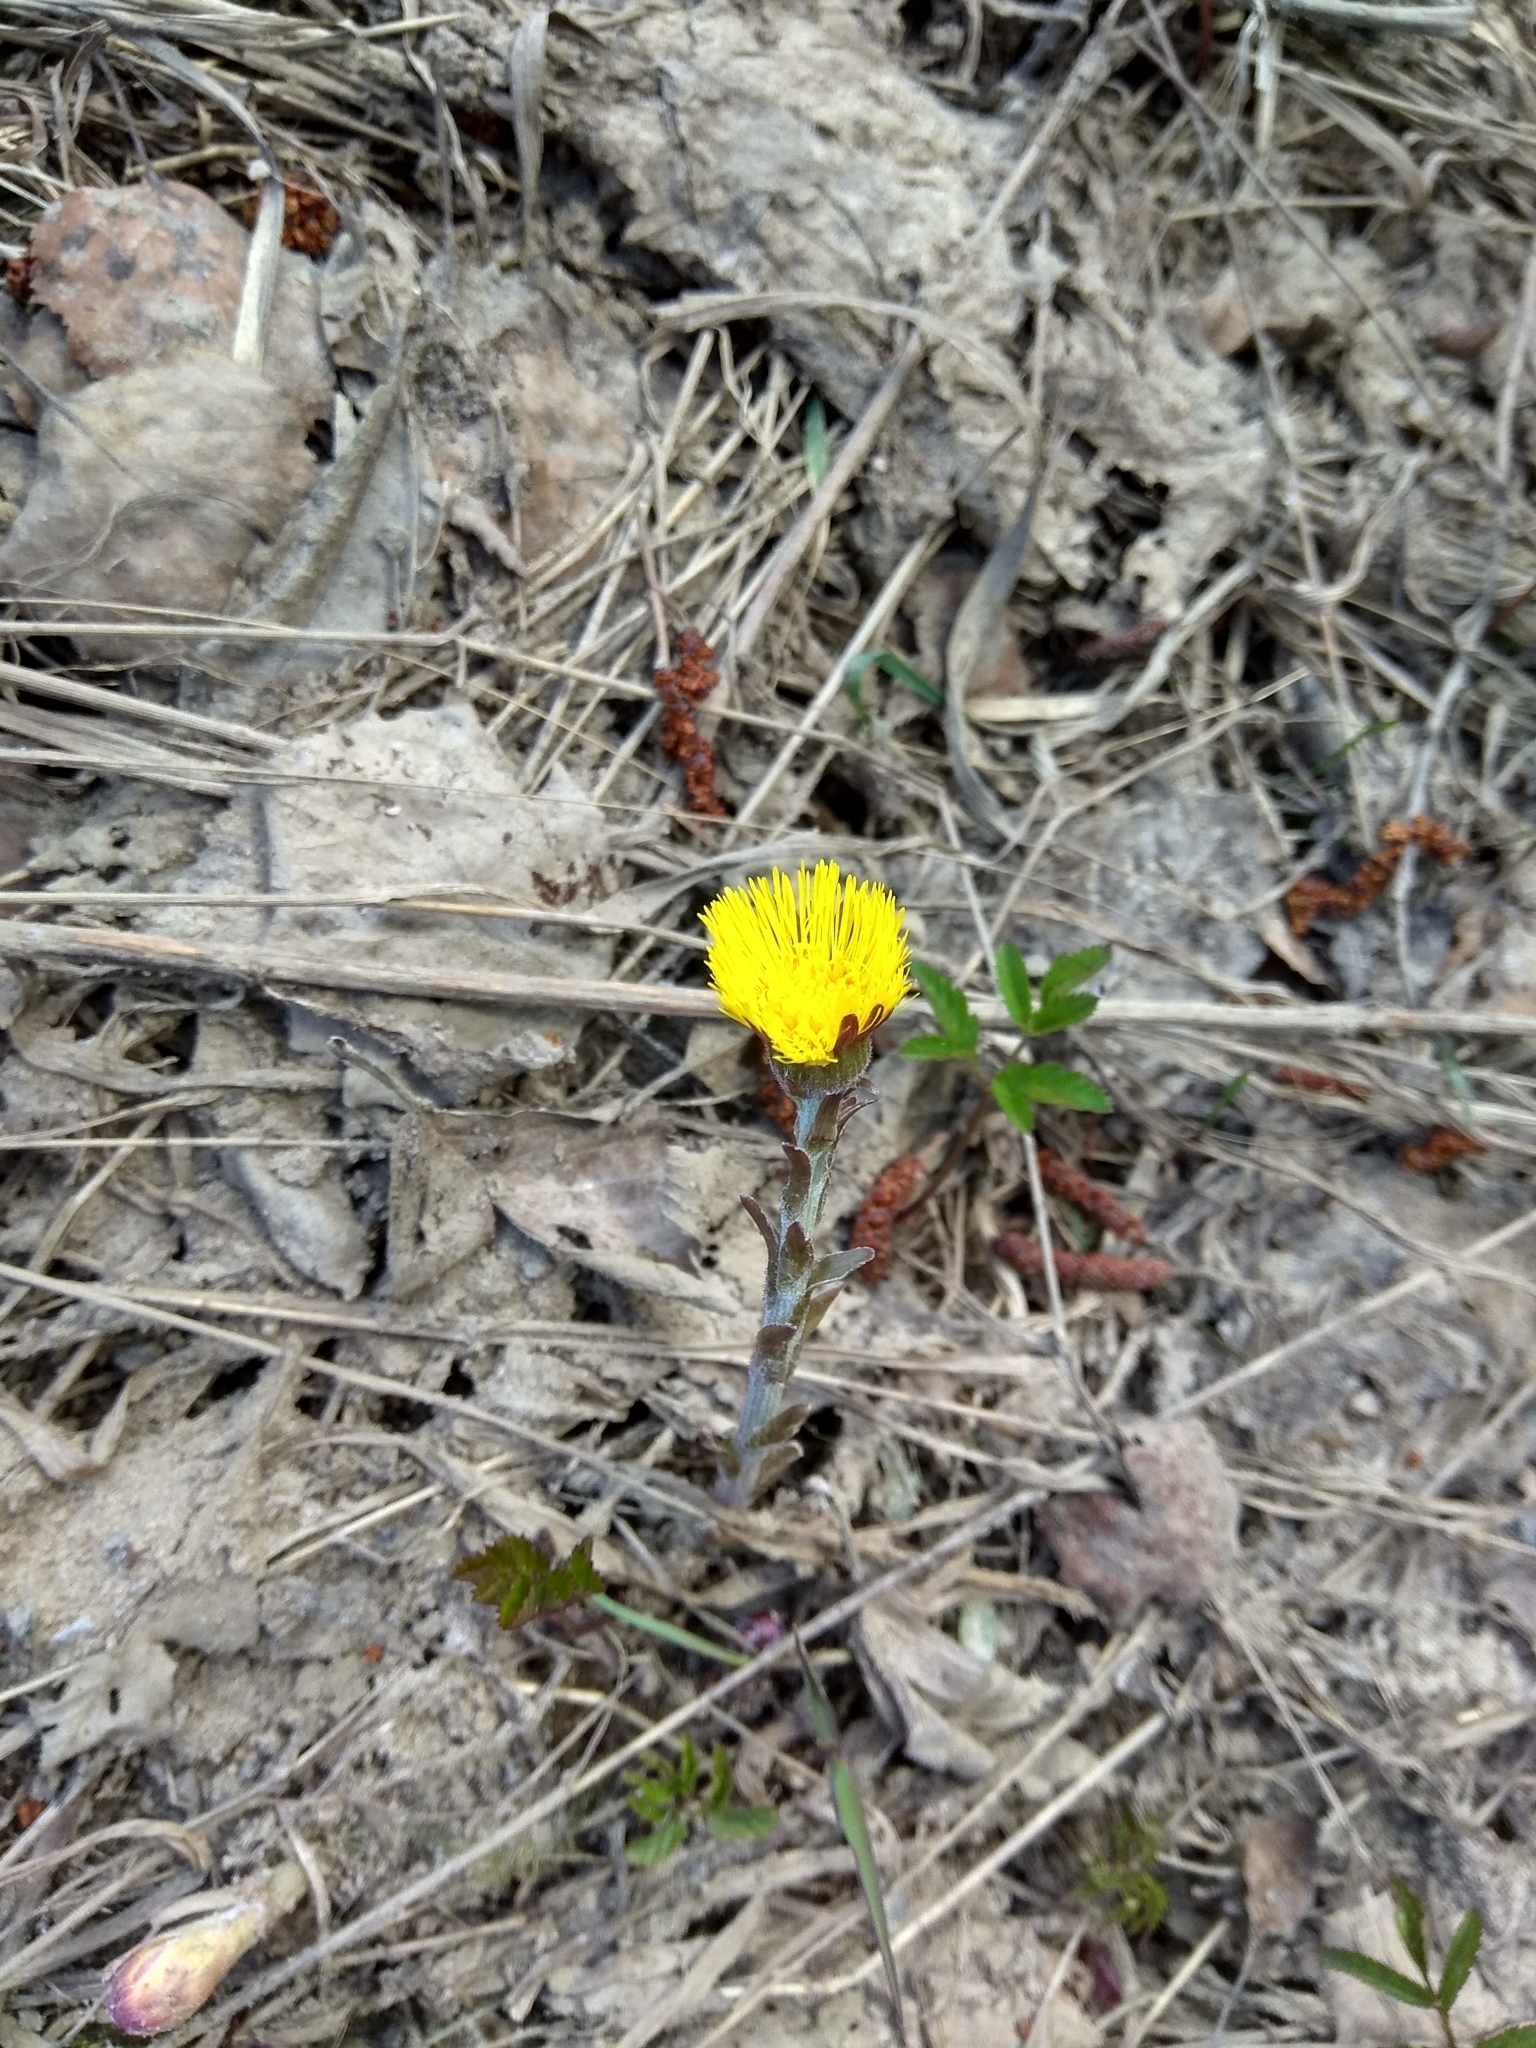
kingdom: Plantae
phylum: Tracheophyta
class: Magnoliopsida
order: Asterales
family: Asteraceae
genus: Tussilago
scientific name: Tussilago farfara
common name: Coltsfoot
